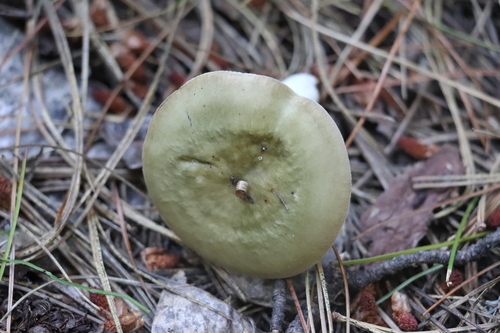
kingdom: Fungi
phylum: Basidiomycota
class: Agaricomycetes
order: Russulales
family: Russulaceae
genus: Russula
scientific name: Russula vesca
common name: Bare-toothed russula
